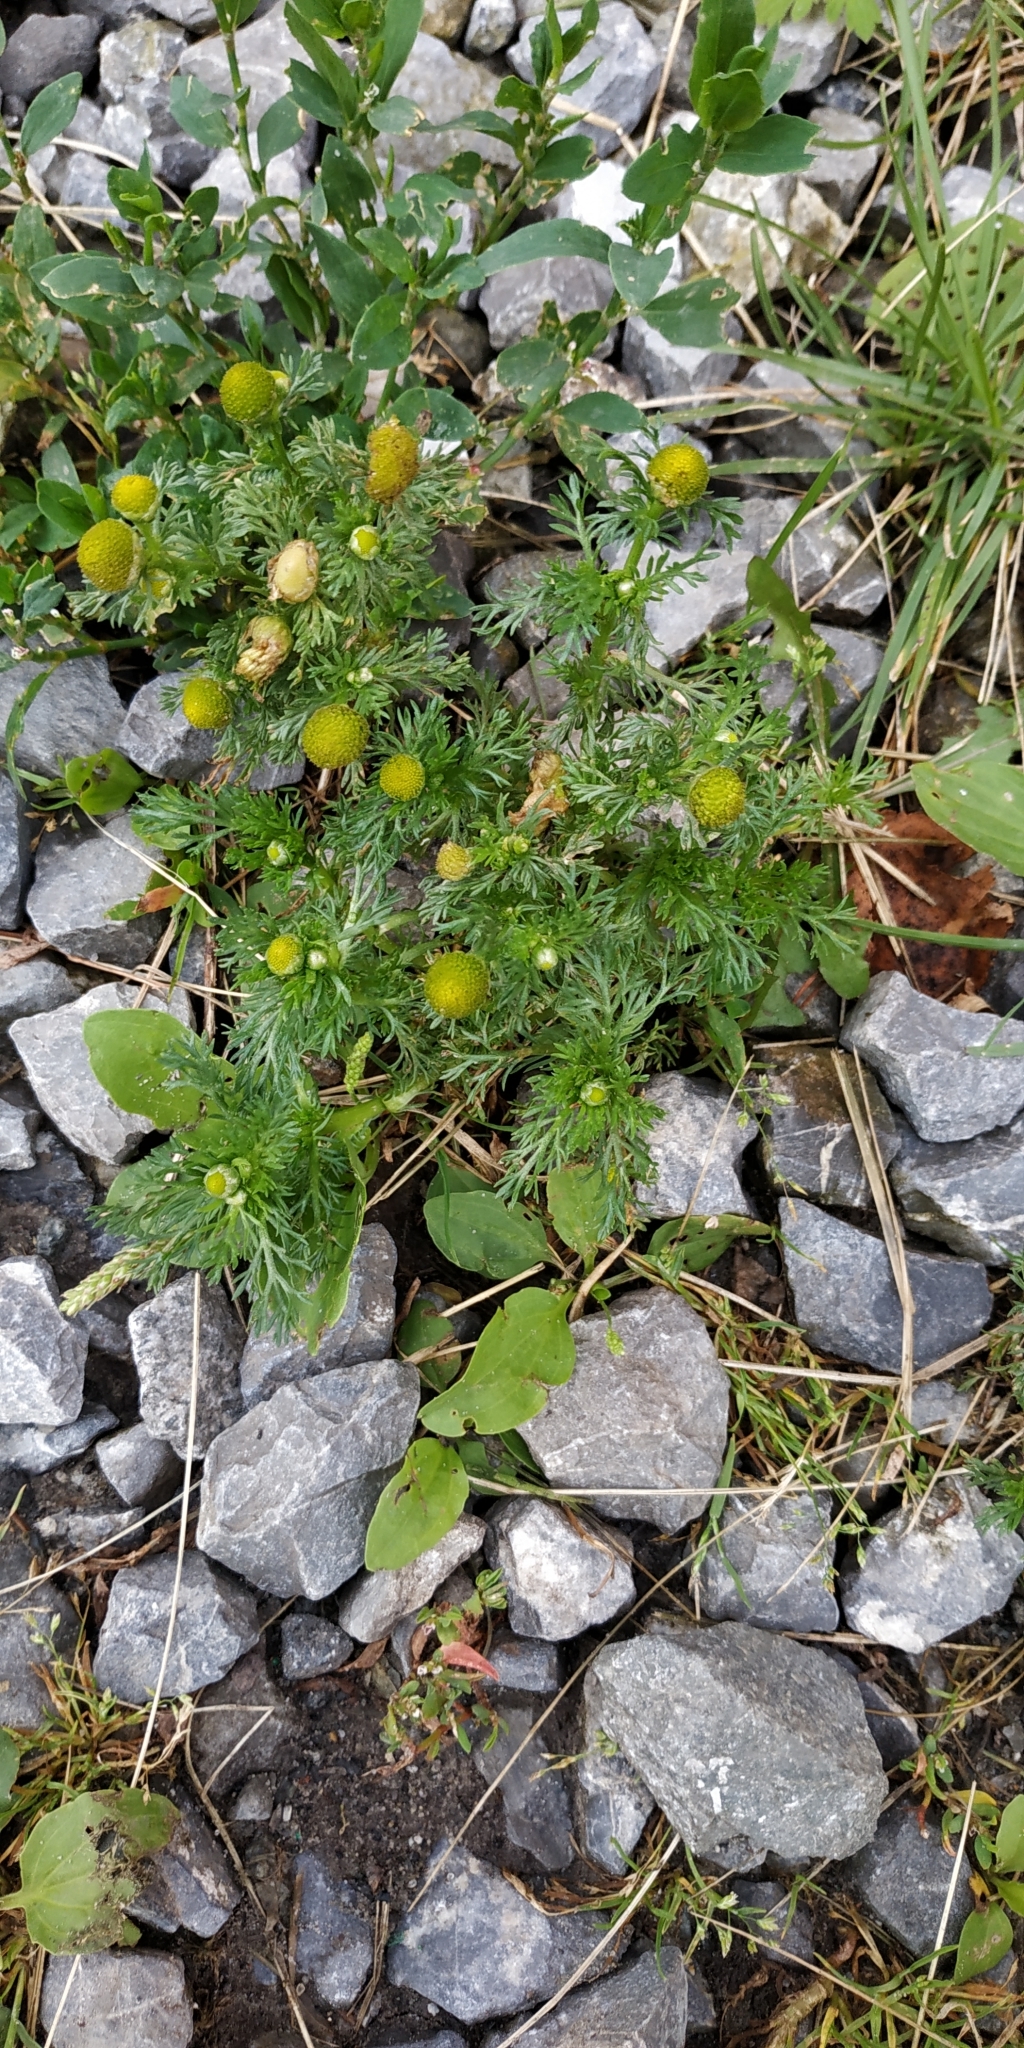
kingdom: Plantae
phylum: Tracheophyta
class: Magnoliopsida
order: Asterales
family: Asteraceae
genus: Matricaria
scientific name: Matricaria discoidea
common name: Disc mayweed
